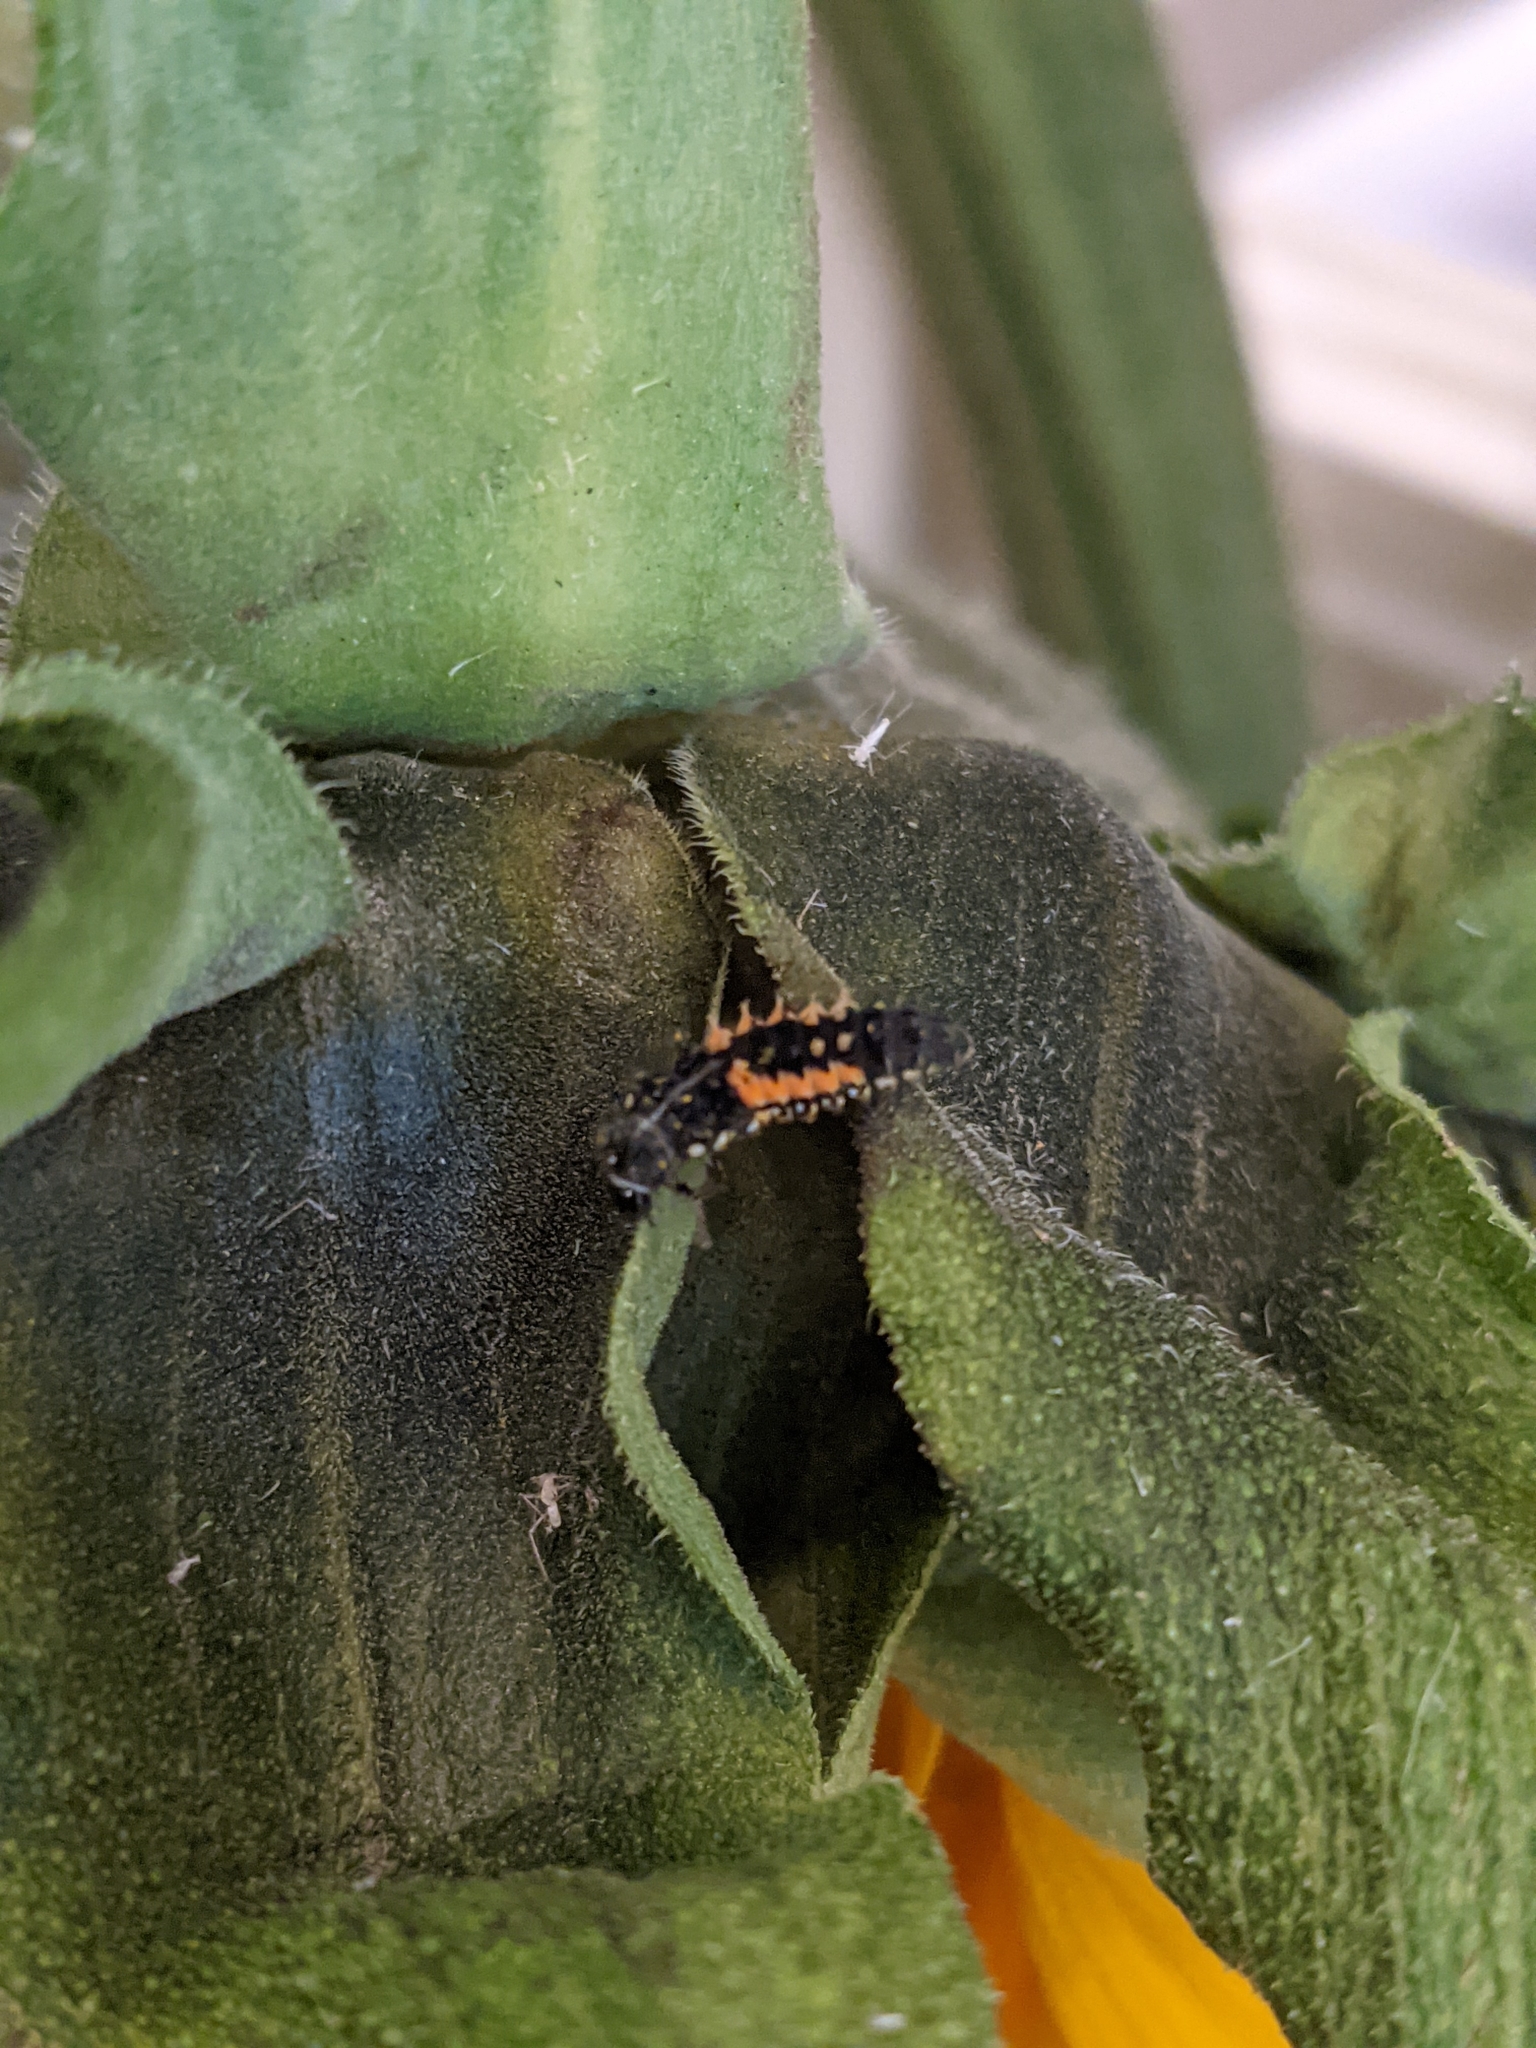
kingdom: Animalia
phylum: Arthropoda
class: Insecta
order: Coleoptera
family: Coccinellidae
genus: Harmonia
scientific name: Harmonia axyridis
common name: Harlequin ladybird
